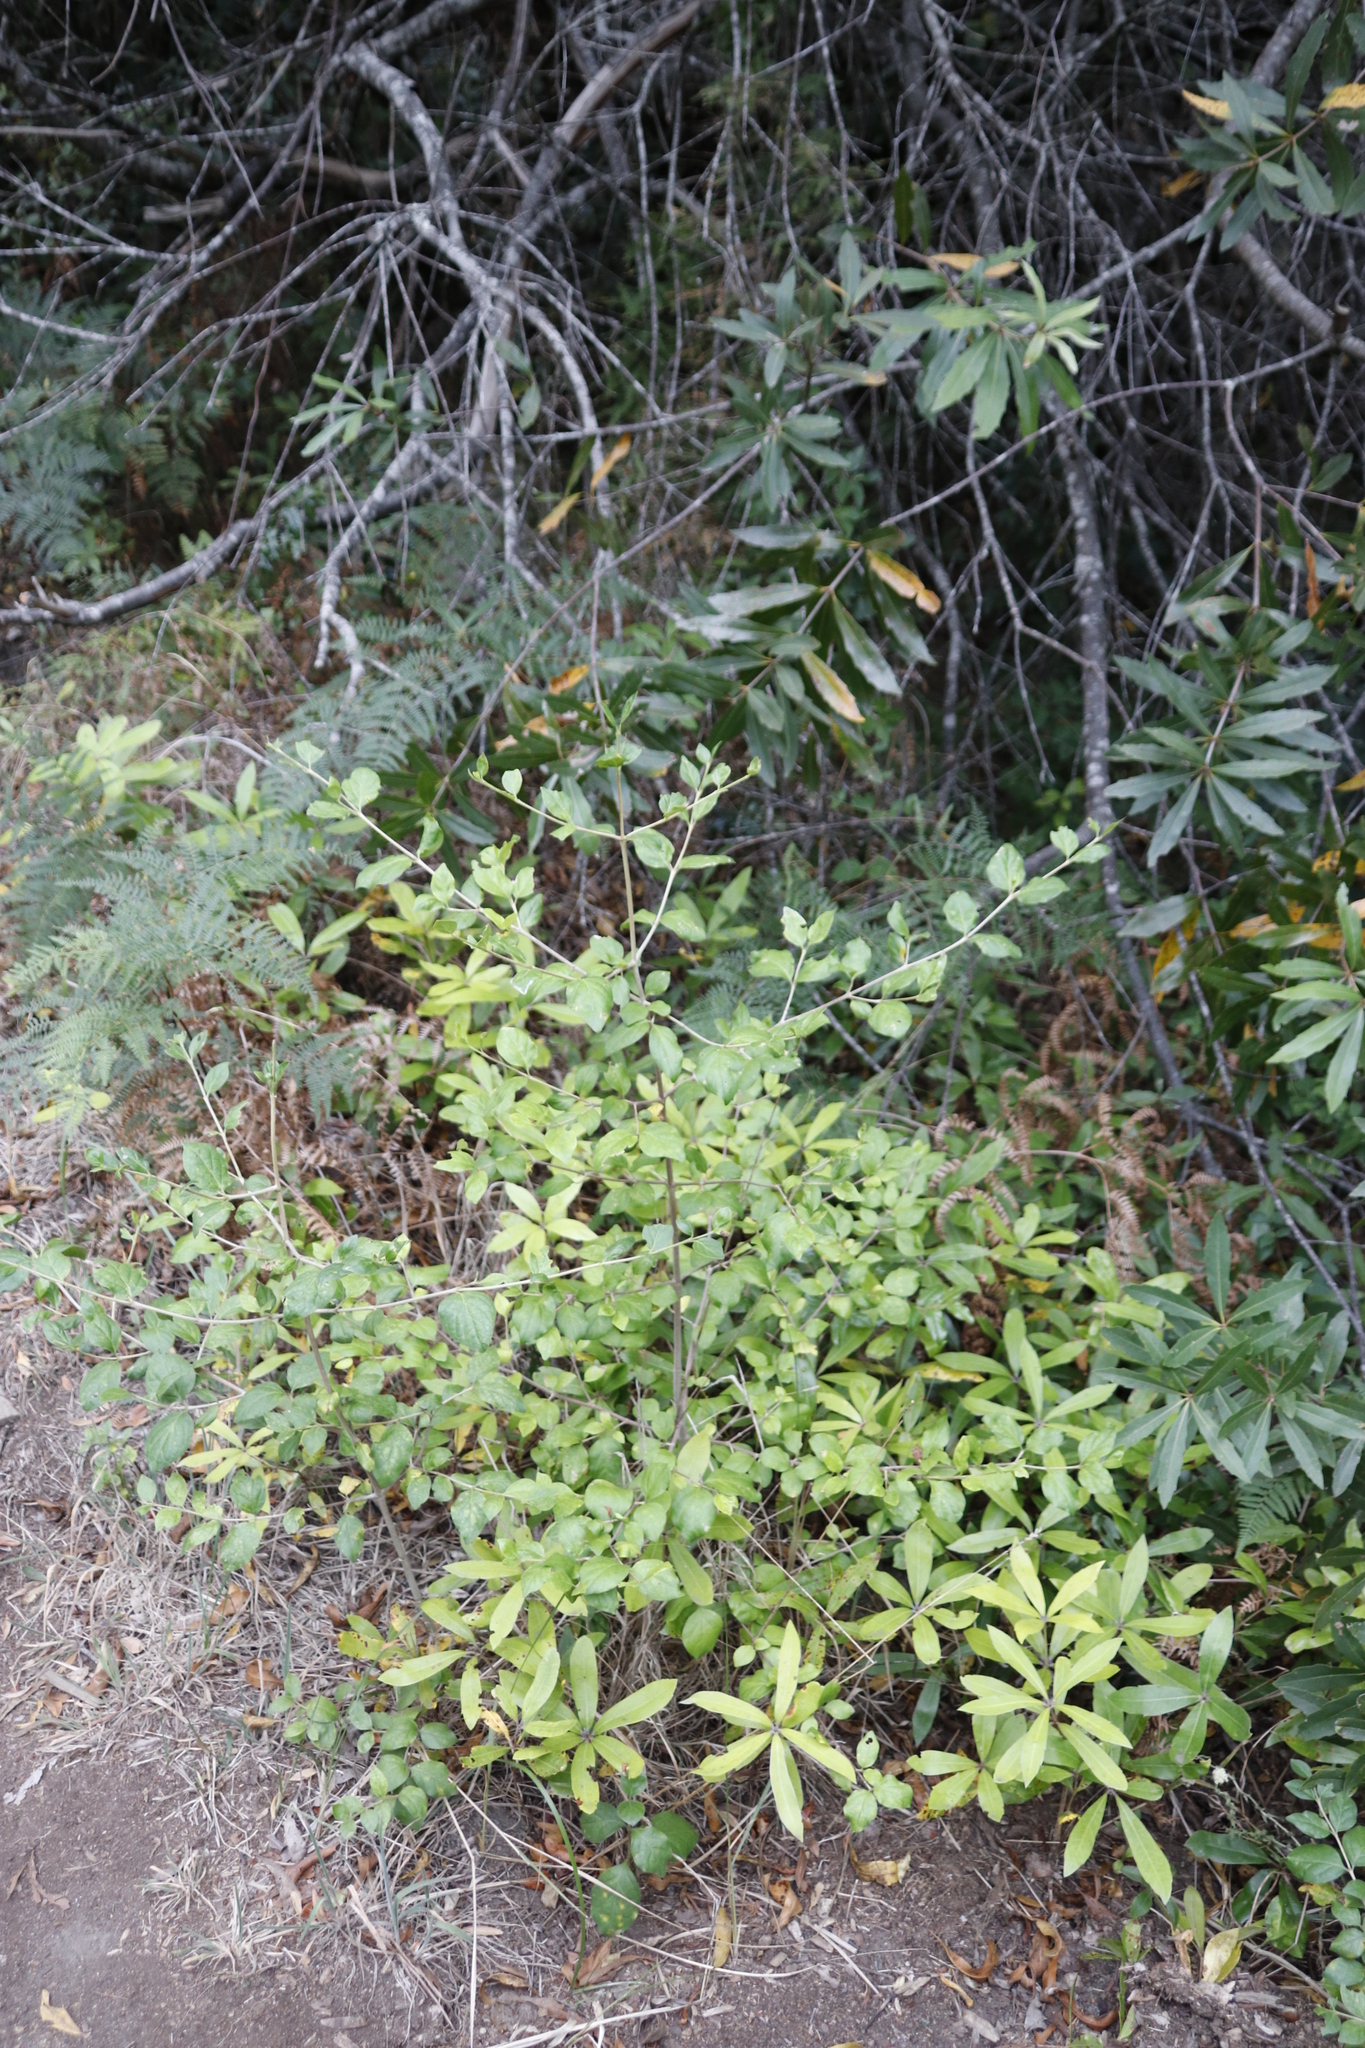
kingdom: Plantae
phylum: Tracheophyta
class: Magnoliopsida
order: Gentianales
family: Rubiaceae
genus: Afrocanthium
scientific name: Afrocanthium mundianum
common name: Rock-alder
